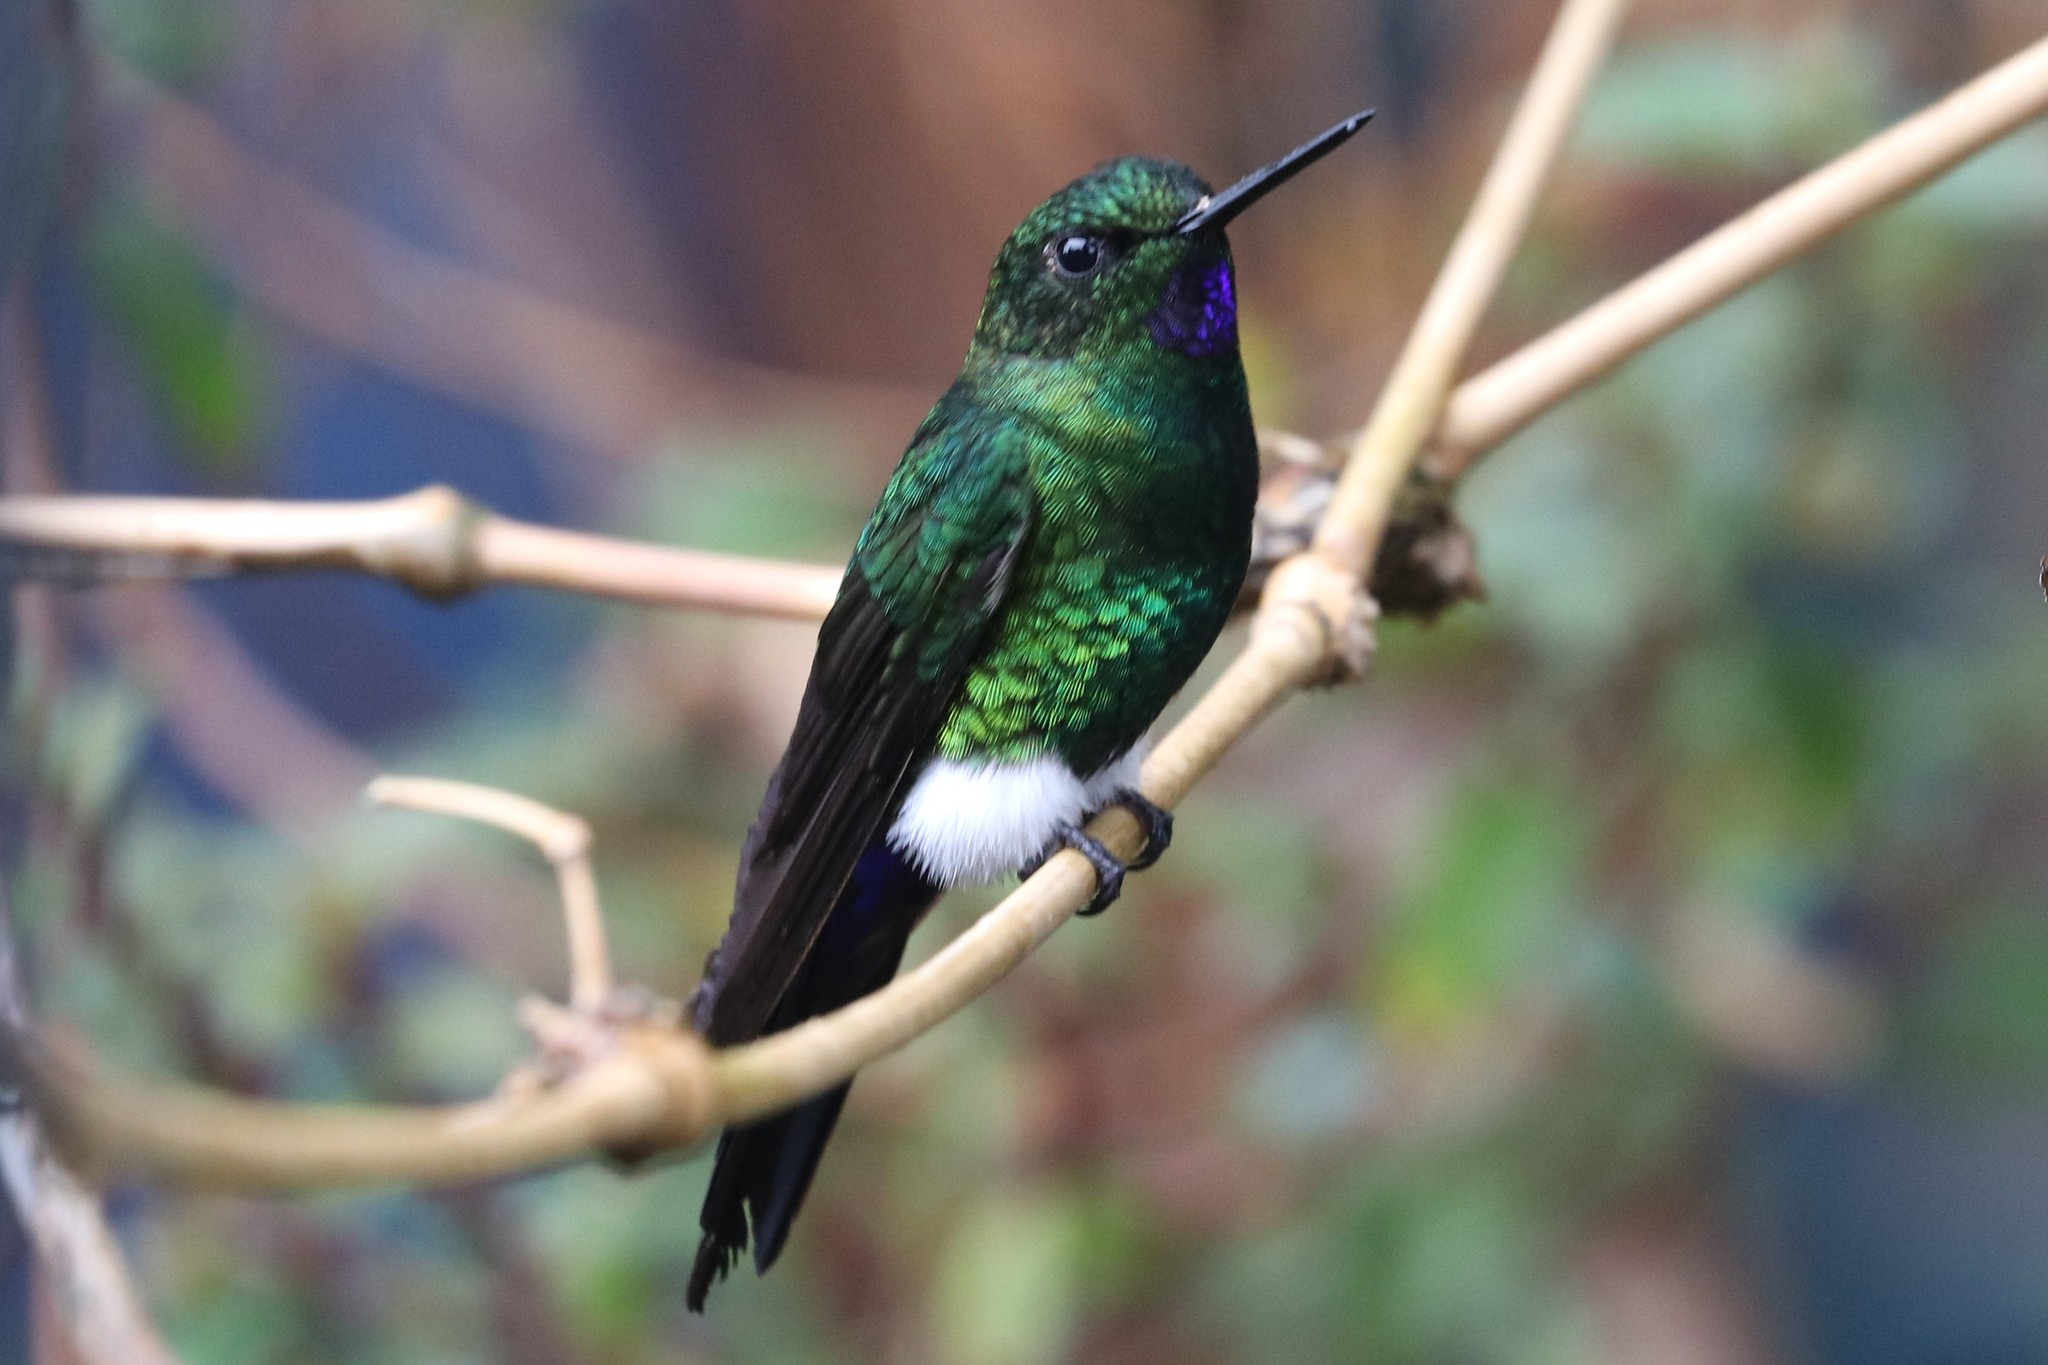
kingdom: Animalia
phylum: Chordata
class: Aves
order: Apodiformes
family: Trochilidae
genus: Eriocnemis
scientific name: Eriocnemis vestita
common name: Glowing puffleg
